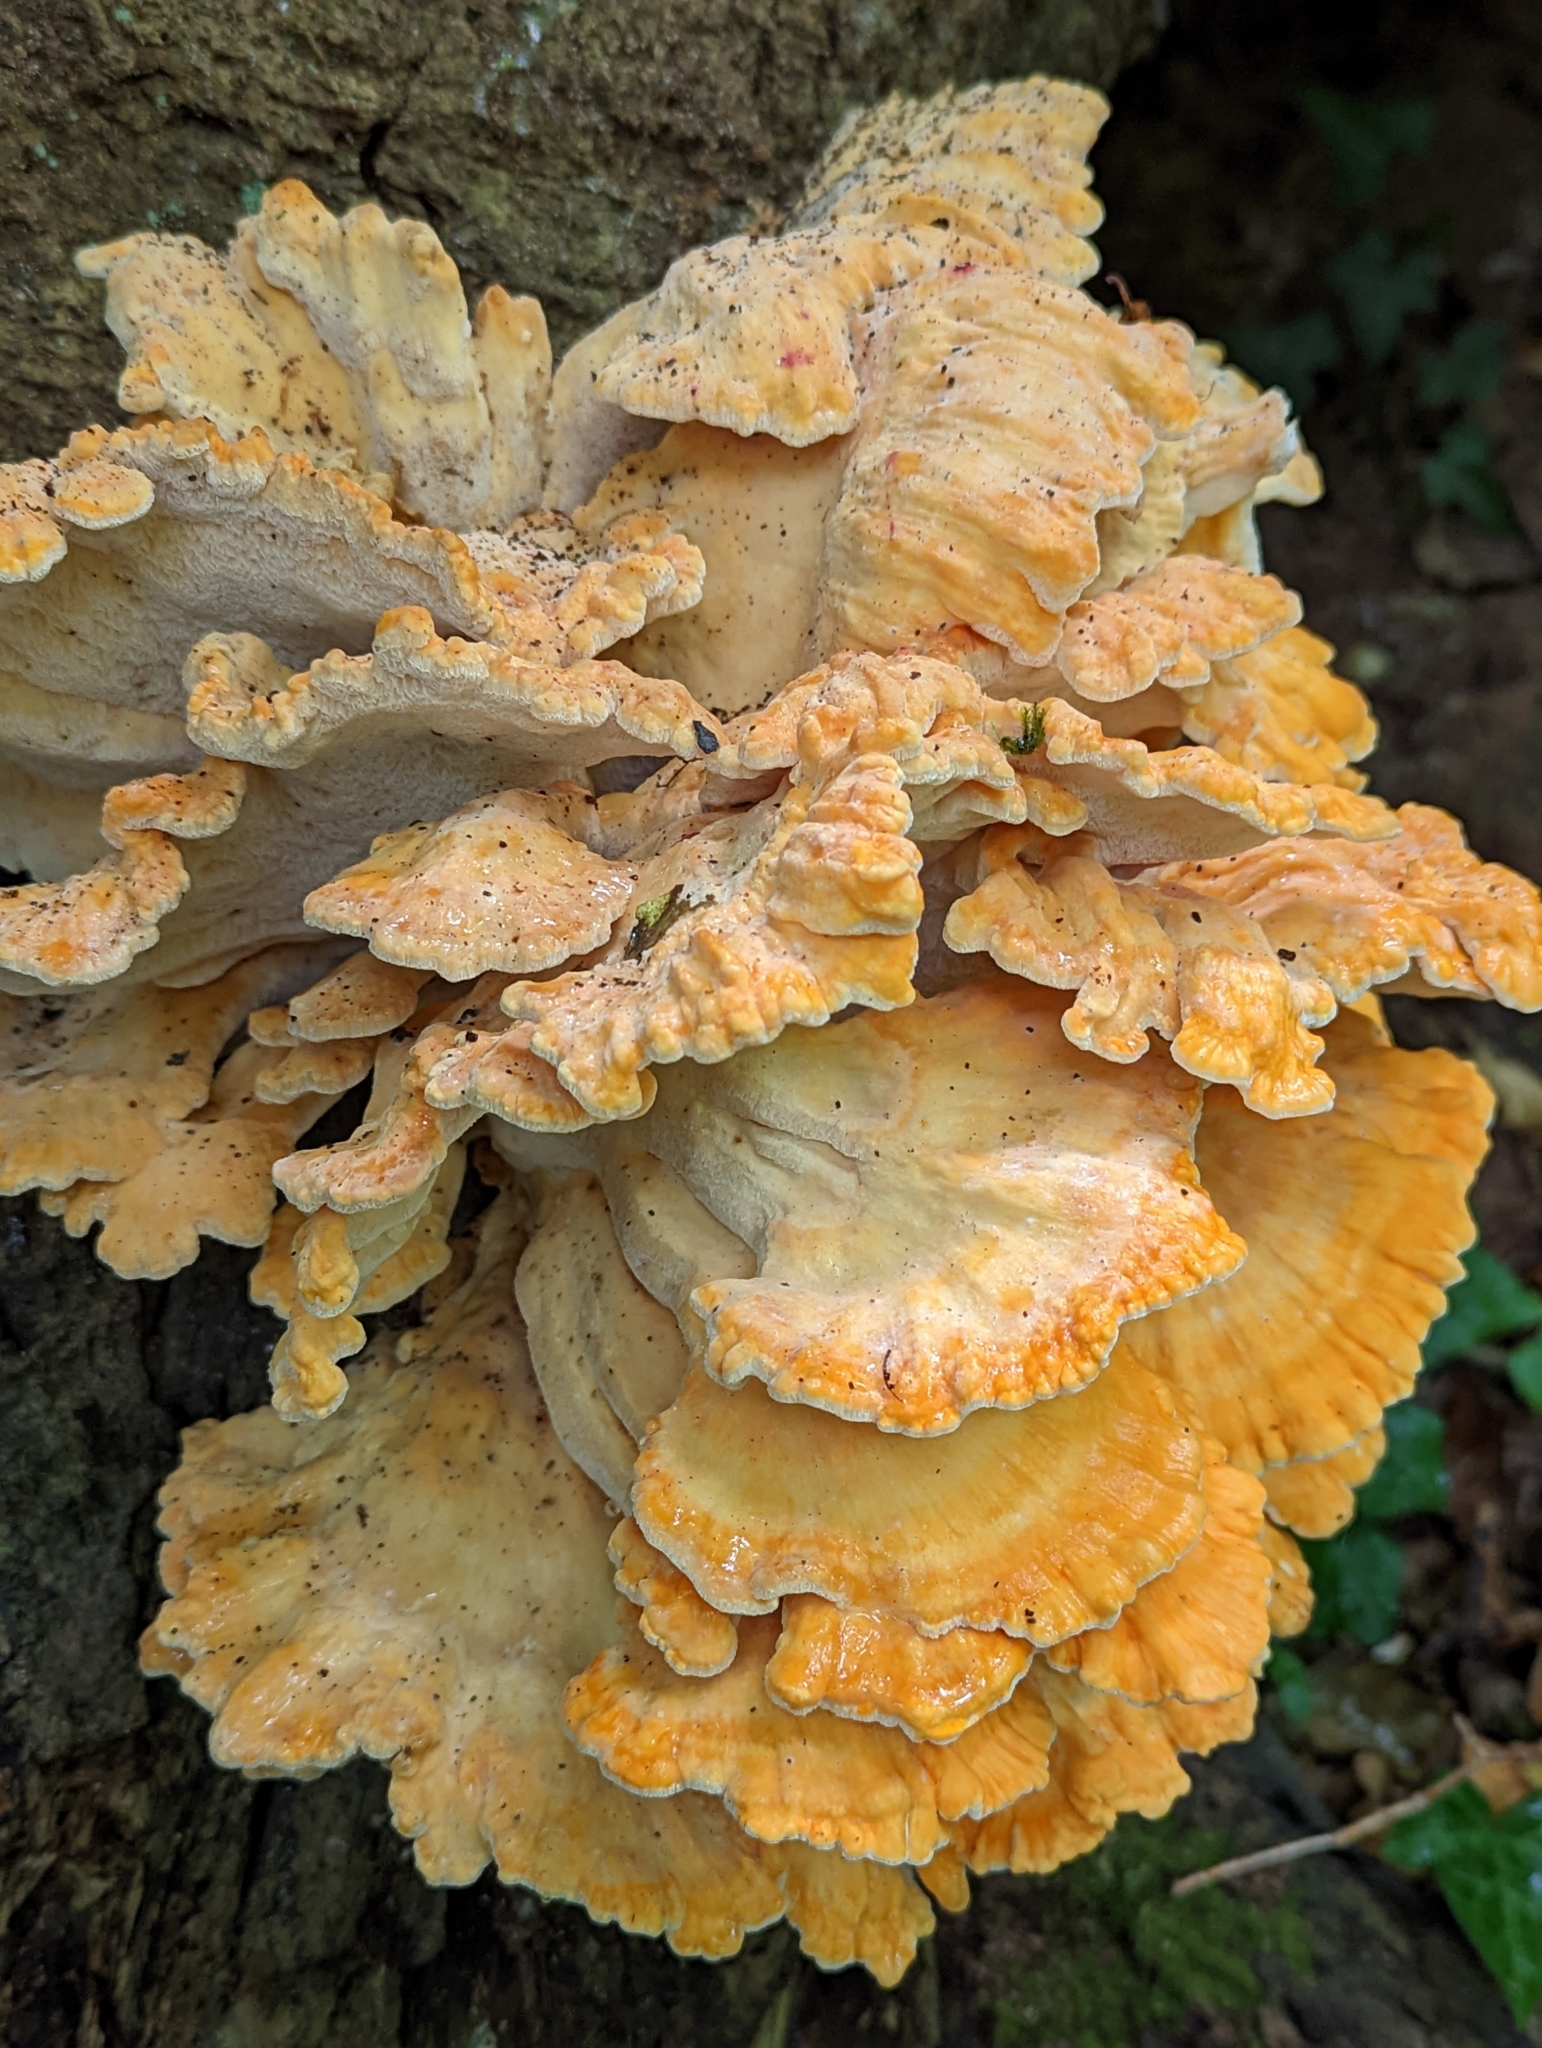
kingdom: Fungi
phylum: Basidiomycota
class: Agaricomycetes
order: Polyporales
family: Laetiporaceae
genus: Laetiporus
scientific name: Laetiporus sulphureus
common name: Chicken of the woods
